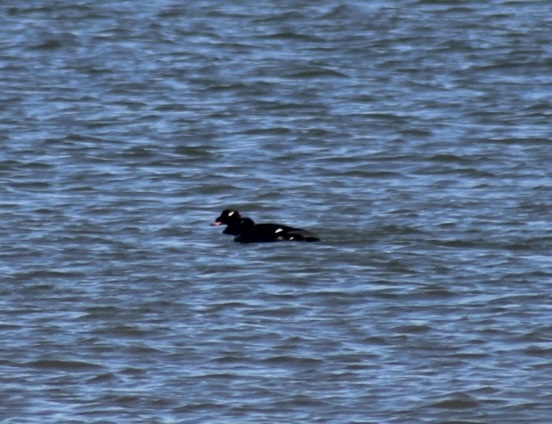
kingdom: Animalia
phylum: Chordata
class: Aves
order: Anseriformes
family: Anatidae
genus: Melanitta
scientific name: Melanitta deglandi
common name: White-winged scoter
